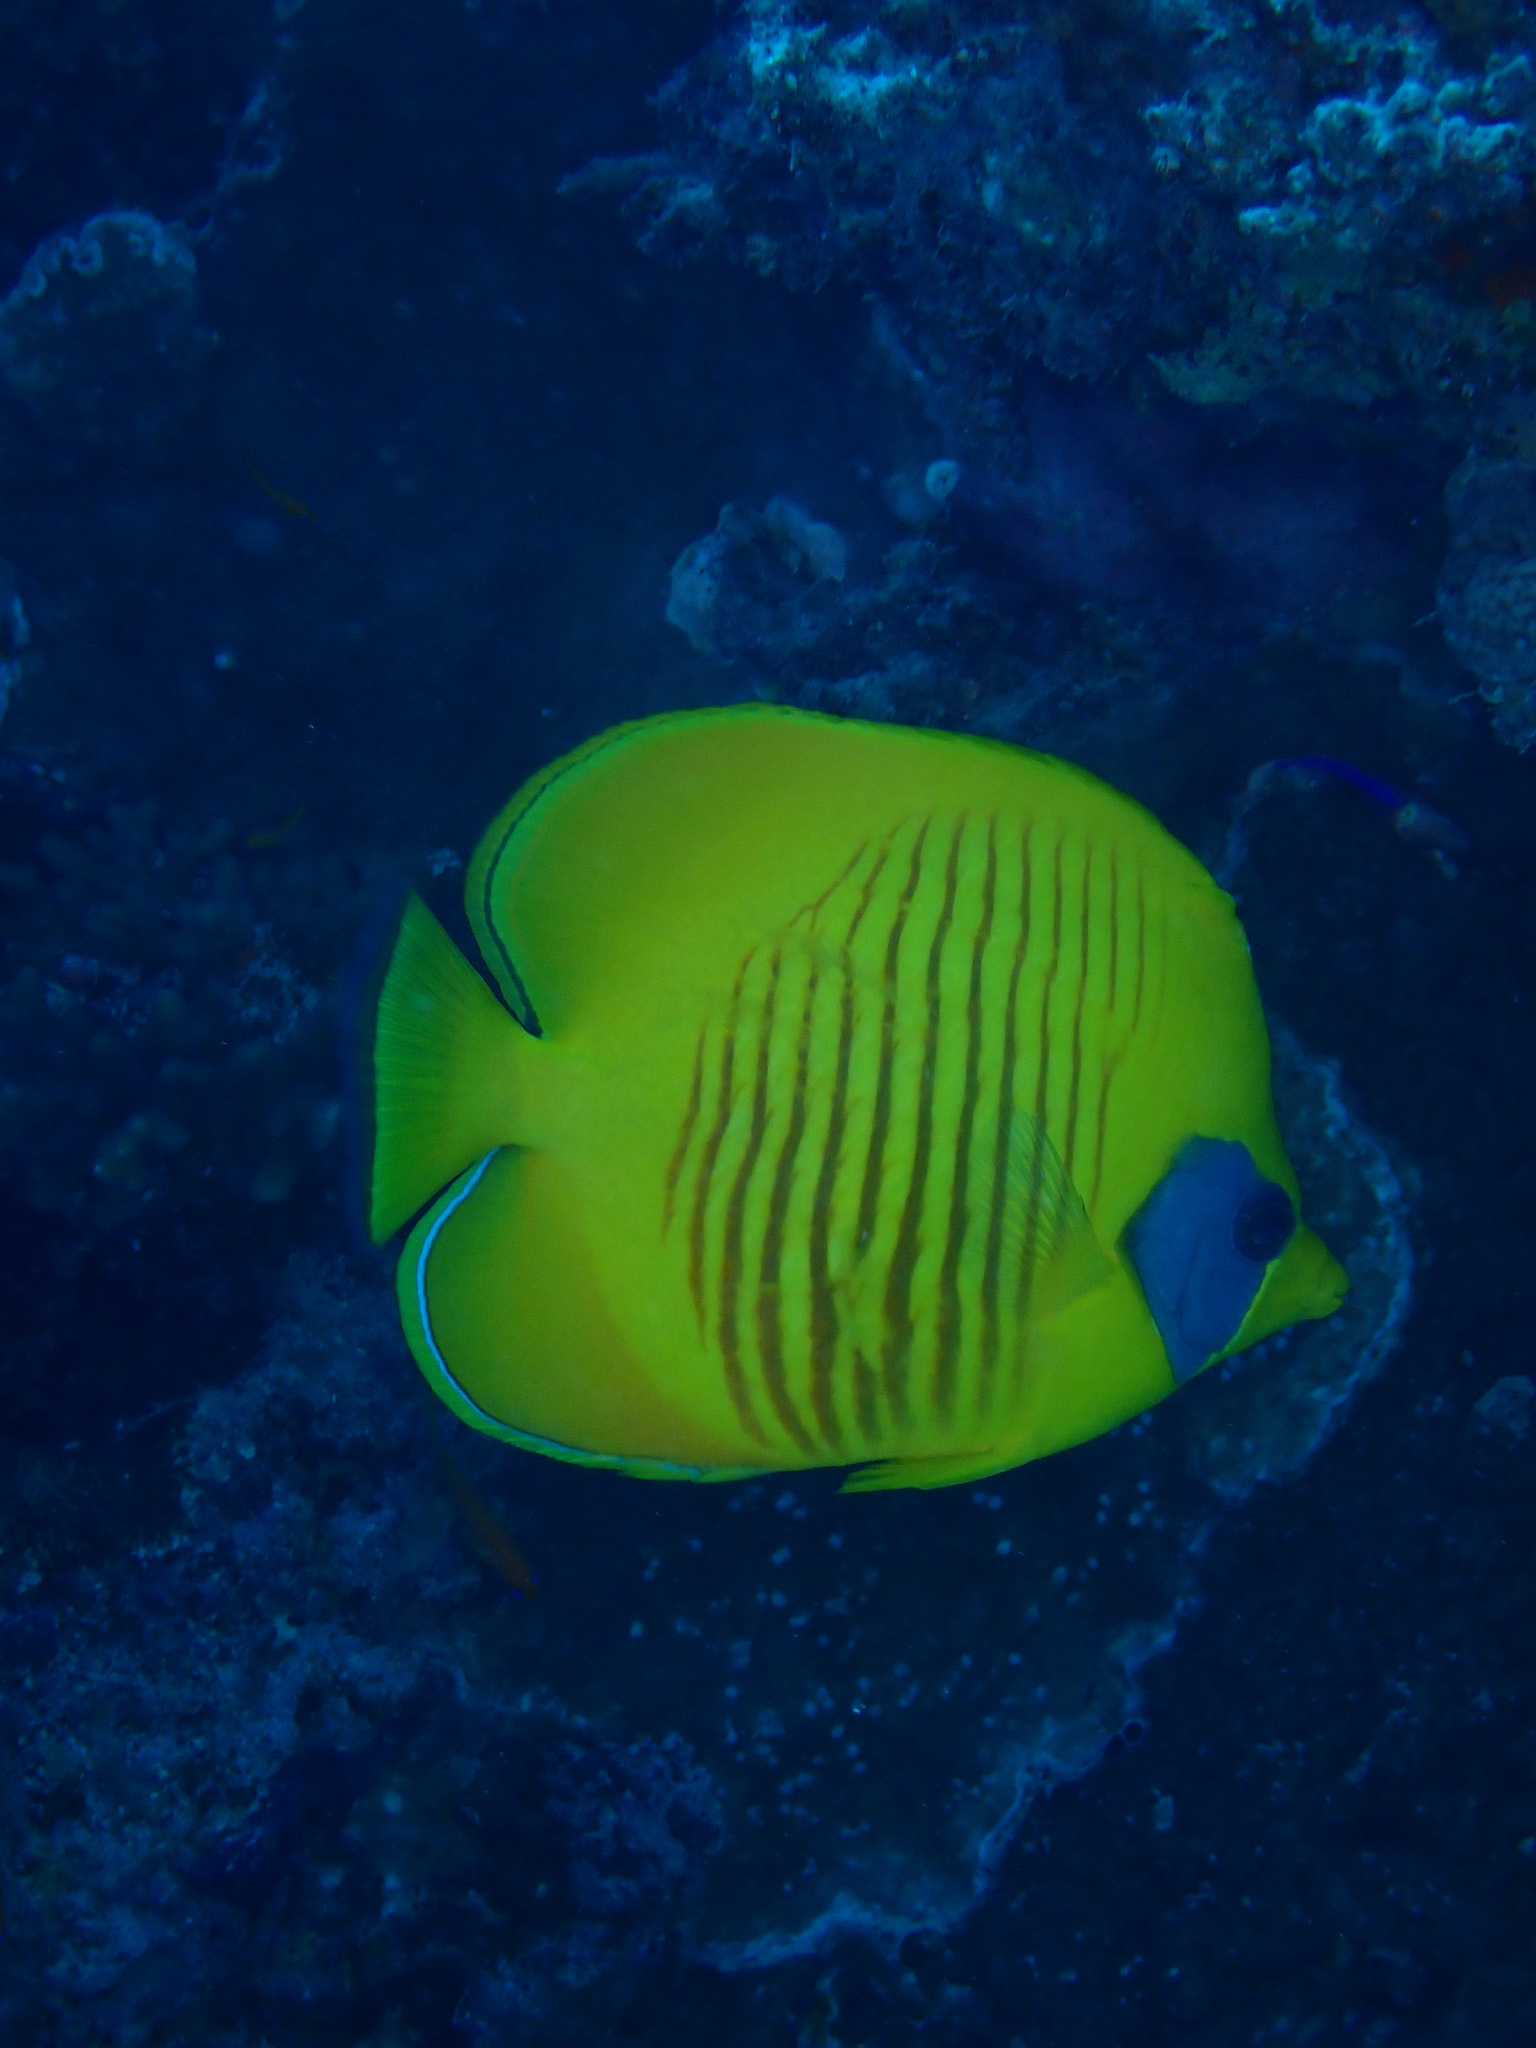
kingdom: Animalia
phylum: Chordata
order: Perciformes
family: Chaetodontidae
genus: Chaetodon
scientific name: Chaetodon semilarvatus
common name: Golden butterflyfish
